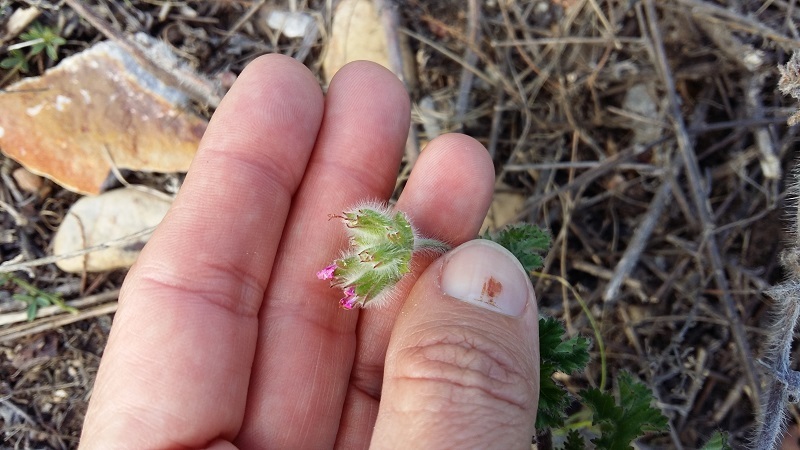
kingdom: Plantae
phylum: Tracheophyta
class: Magnoliopsida
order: Geraniales
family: Geraniaceae
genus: Pelargonium
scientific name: Pelargonium capitatum
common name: Rose scented geranium
